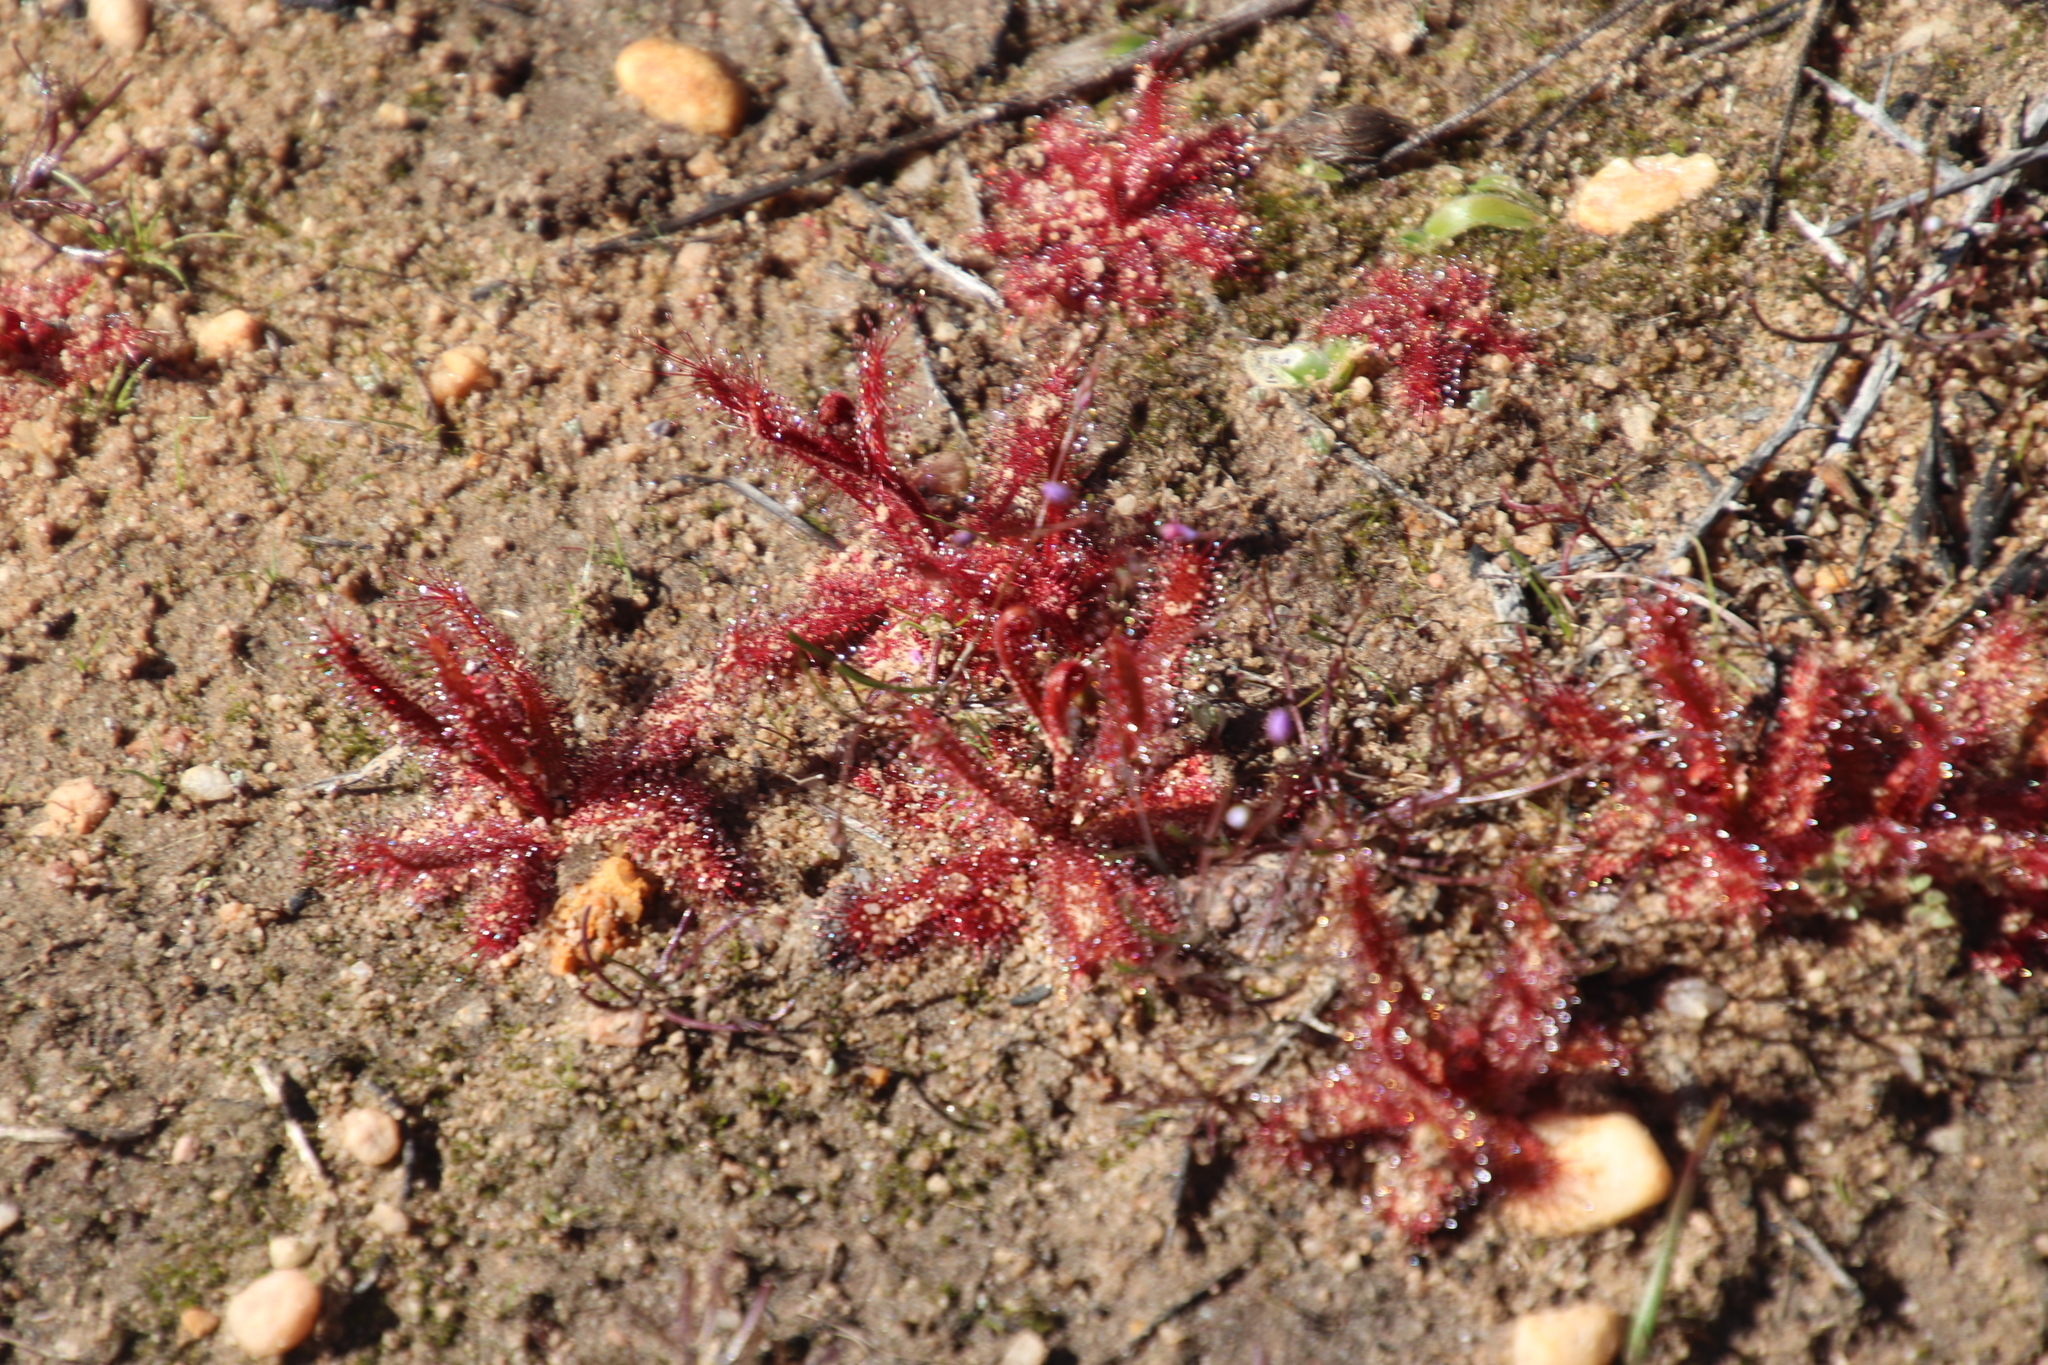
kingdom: Plantae
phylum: Tracheophyta
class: Magnoliopsida
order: Caryophyllales
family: Droseraceae
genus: Drosera
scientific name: Drosera cistiflora
